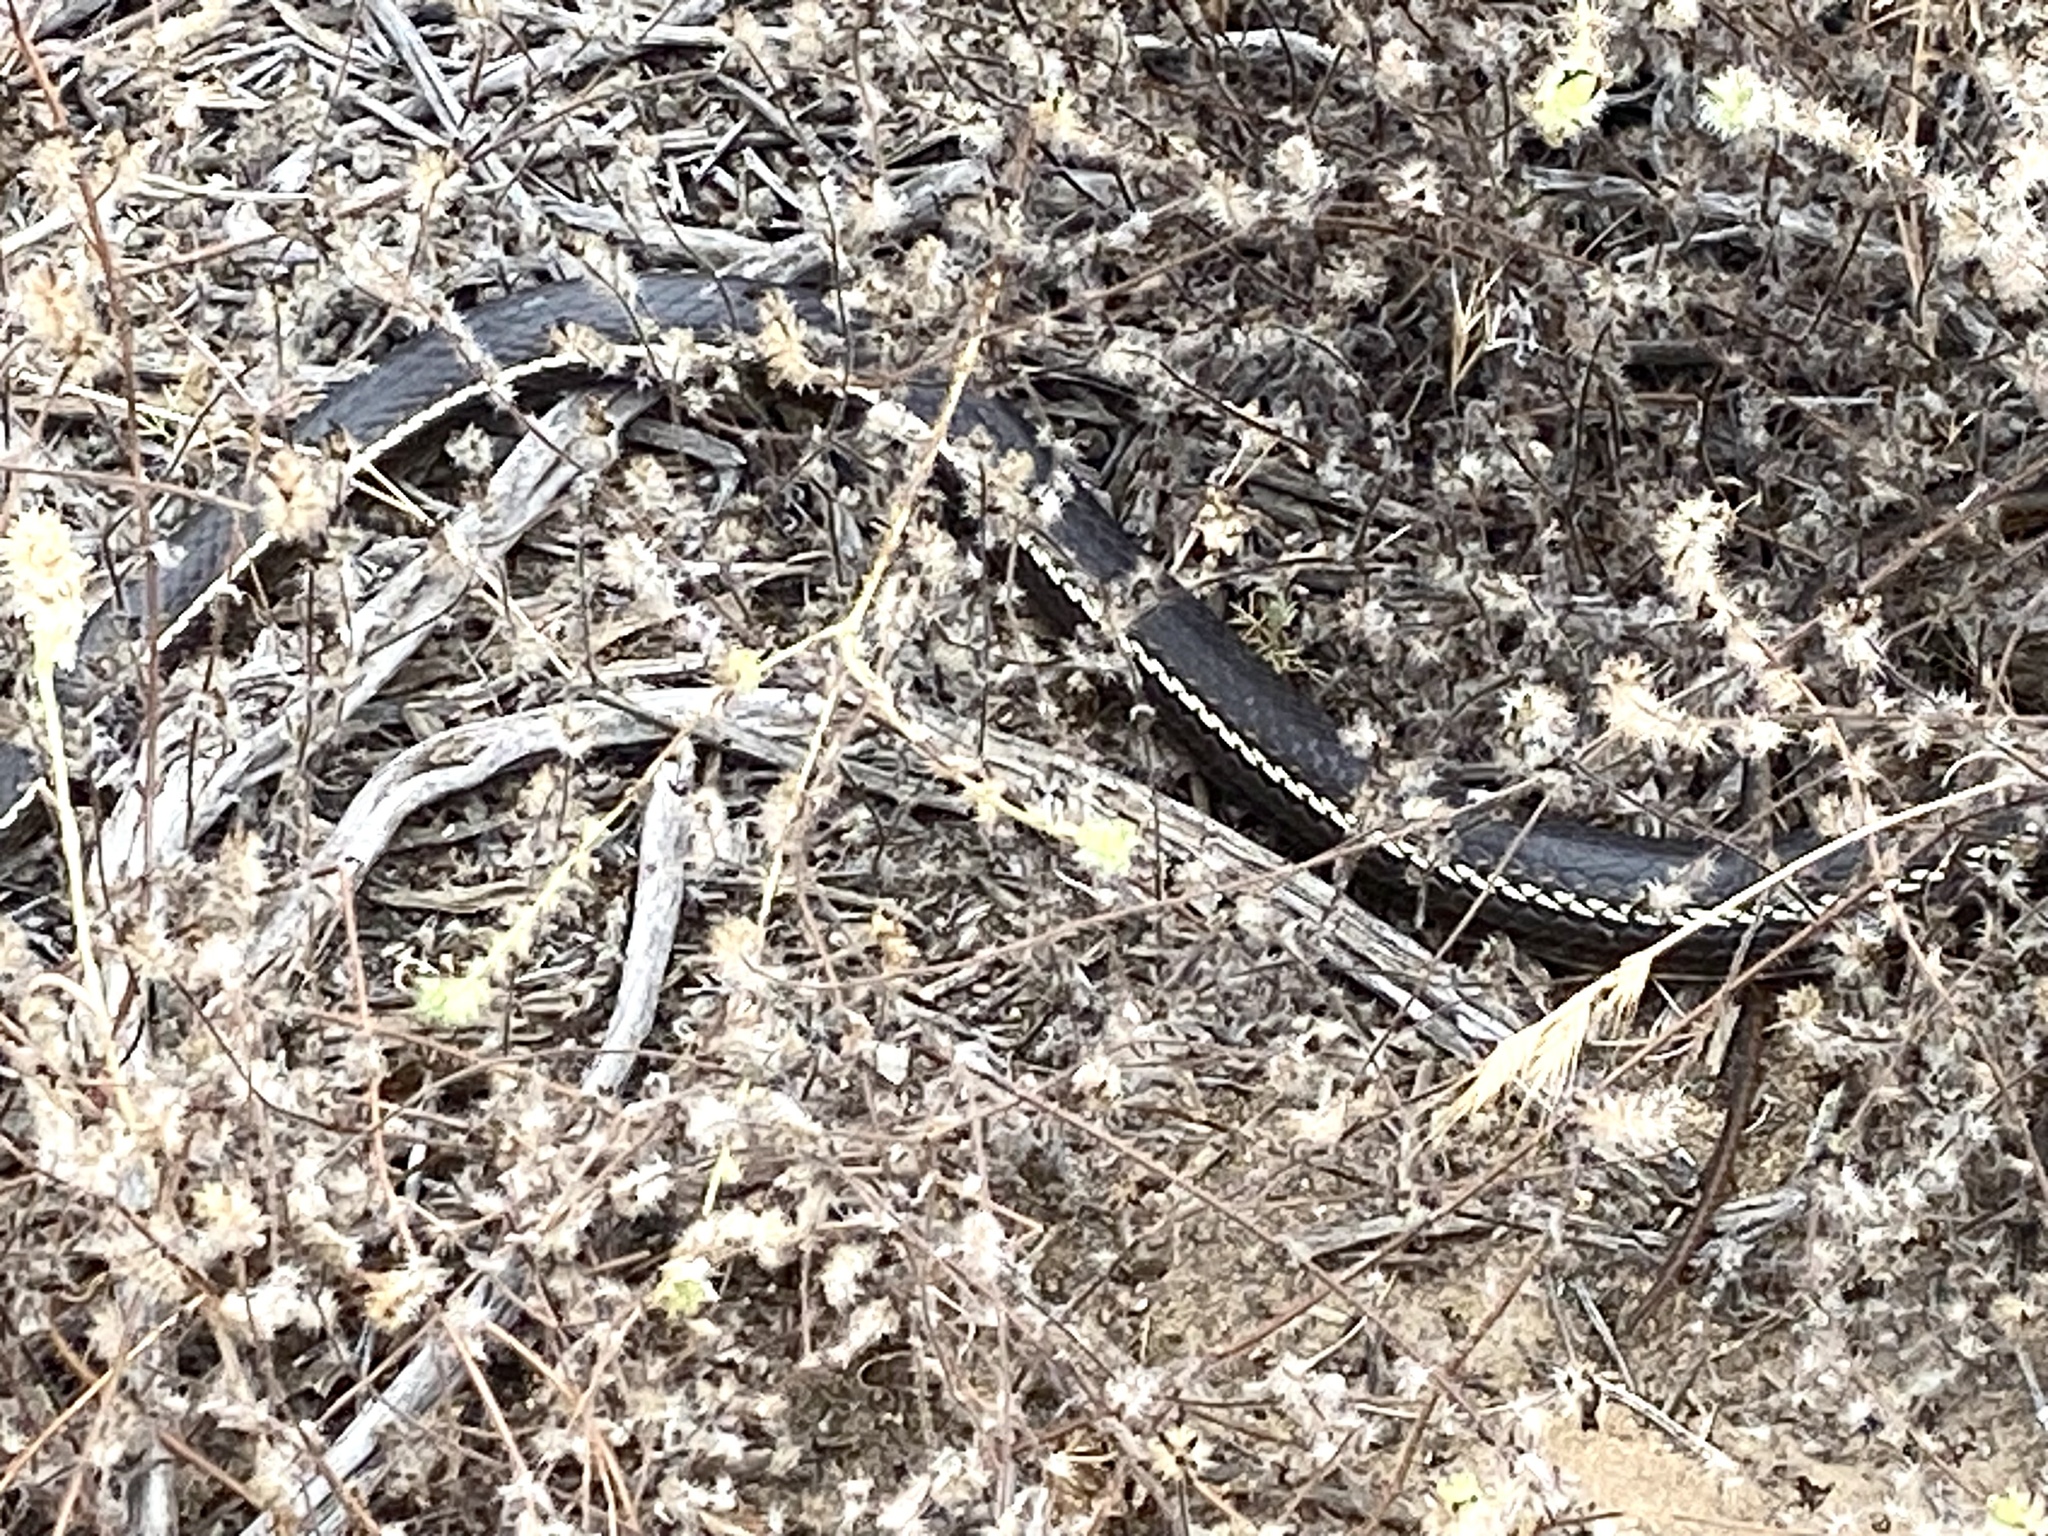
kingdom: Animalia
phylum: Chordata
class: Squamata
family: Colubridae
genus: Masticophis
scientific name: Masticophis lateralis
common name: Striped racer
